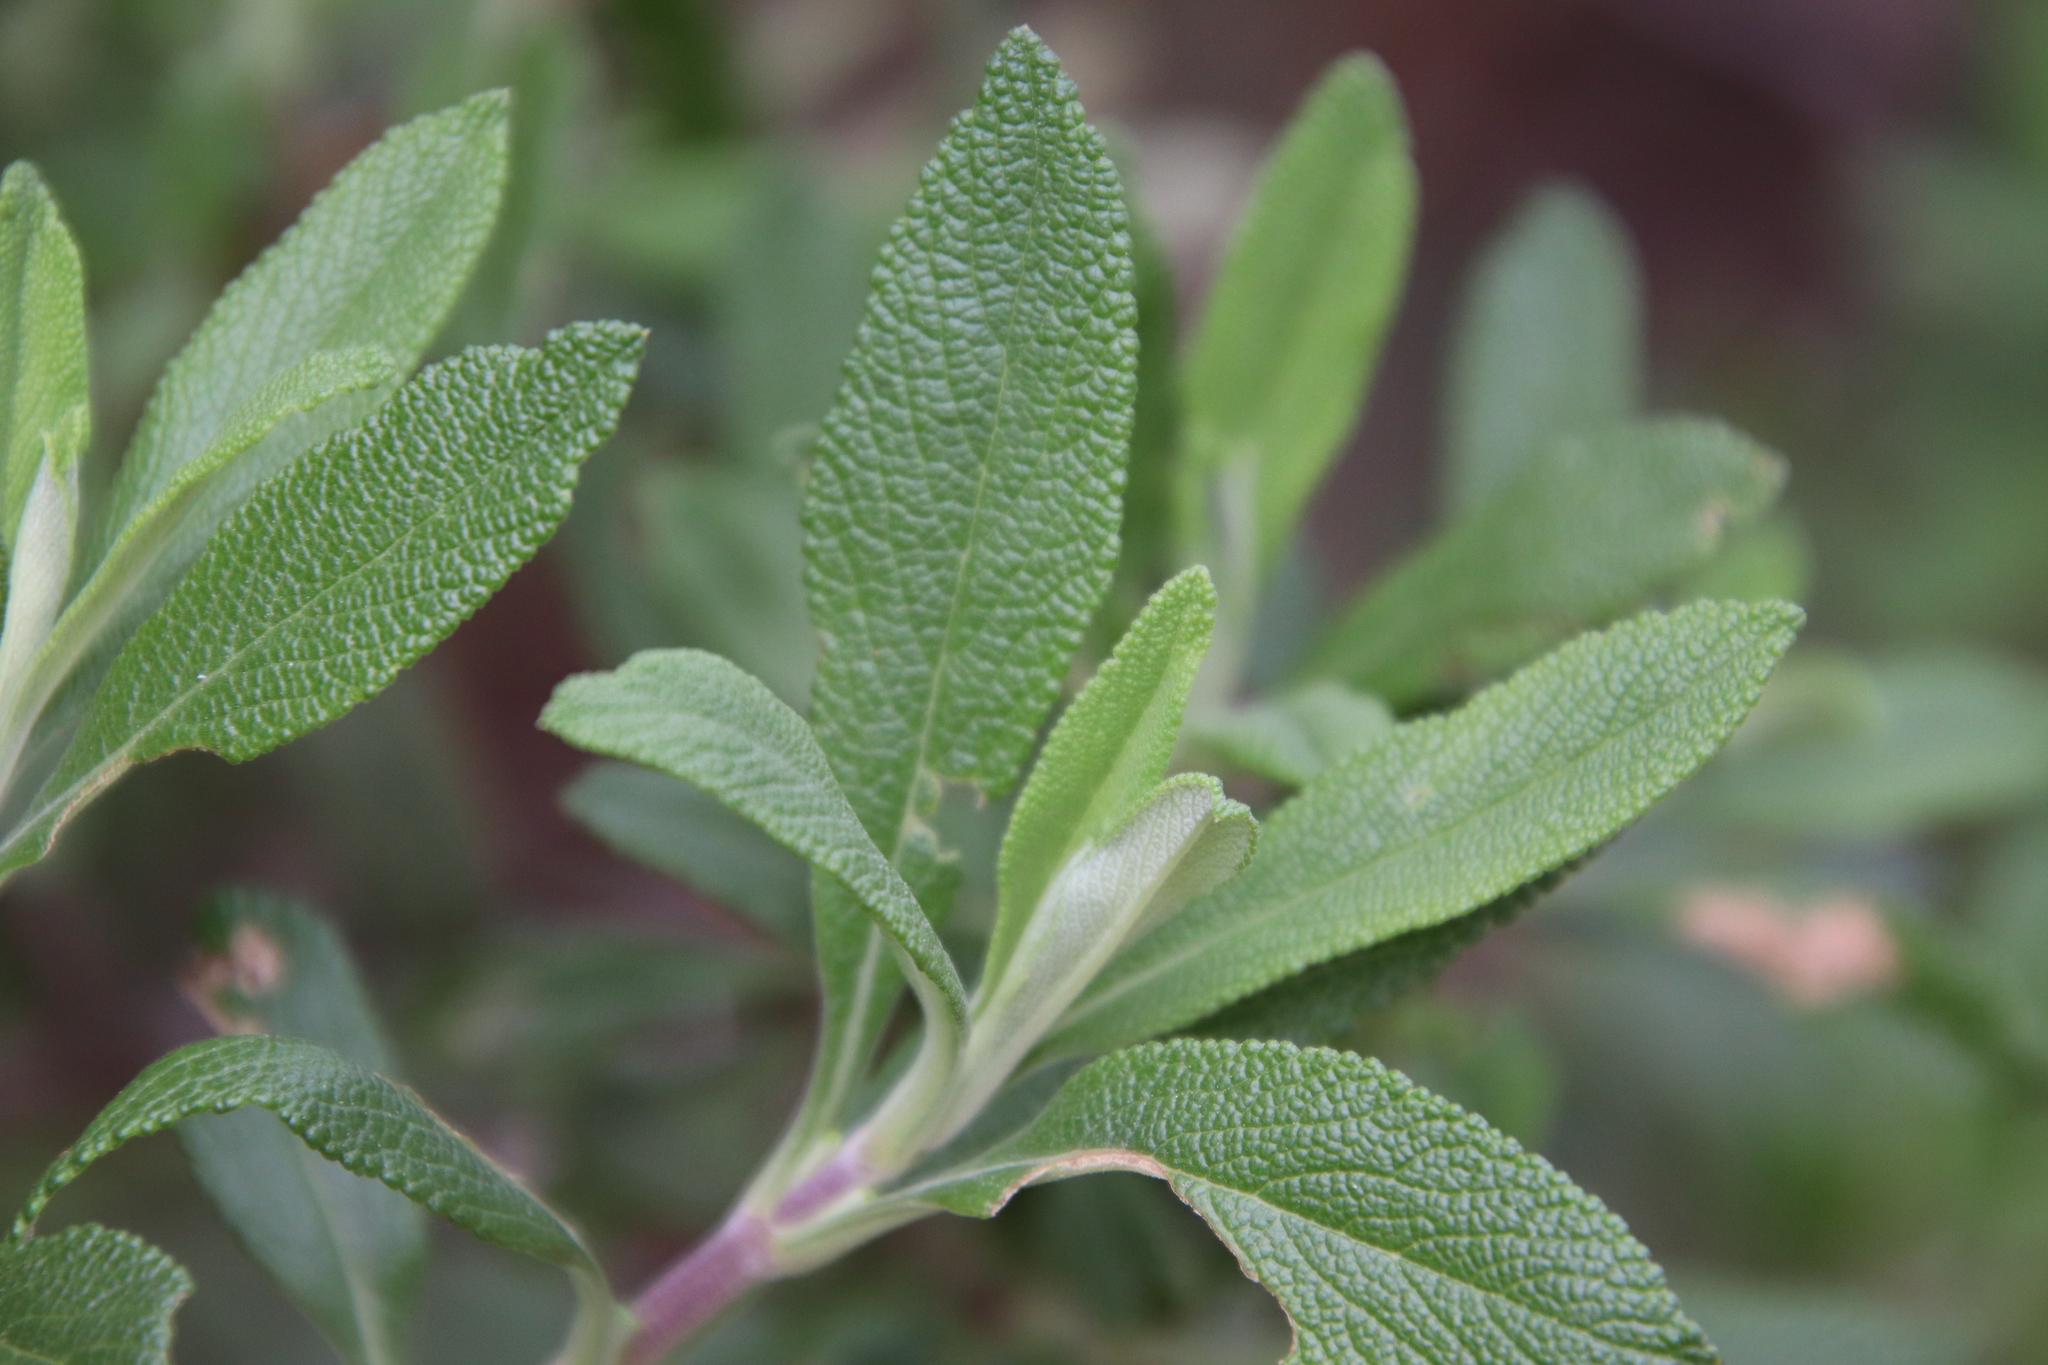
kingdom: Plantae
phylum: Tracheophyta
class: Magnoliopsida
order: Lamiales
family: Lamiaceae
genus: Salvia
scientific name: Salvia mellifera
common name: Black sage
